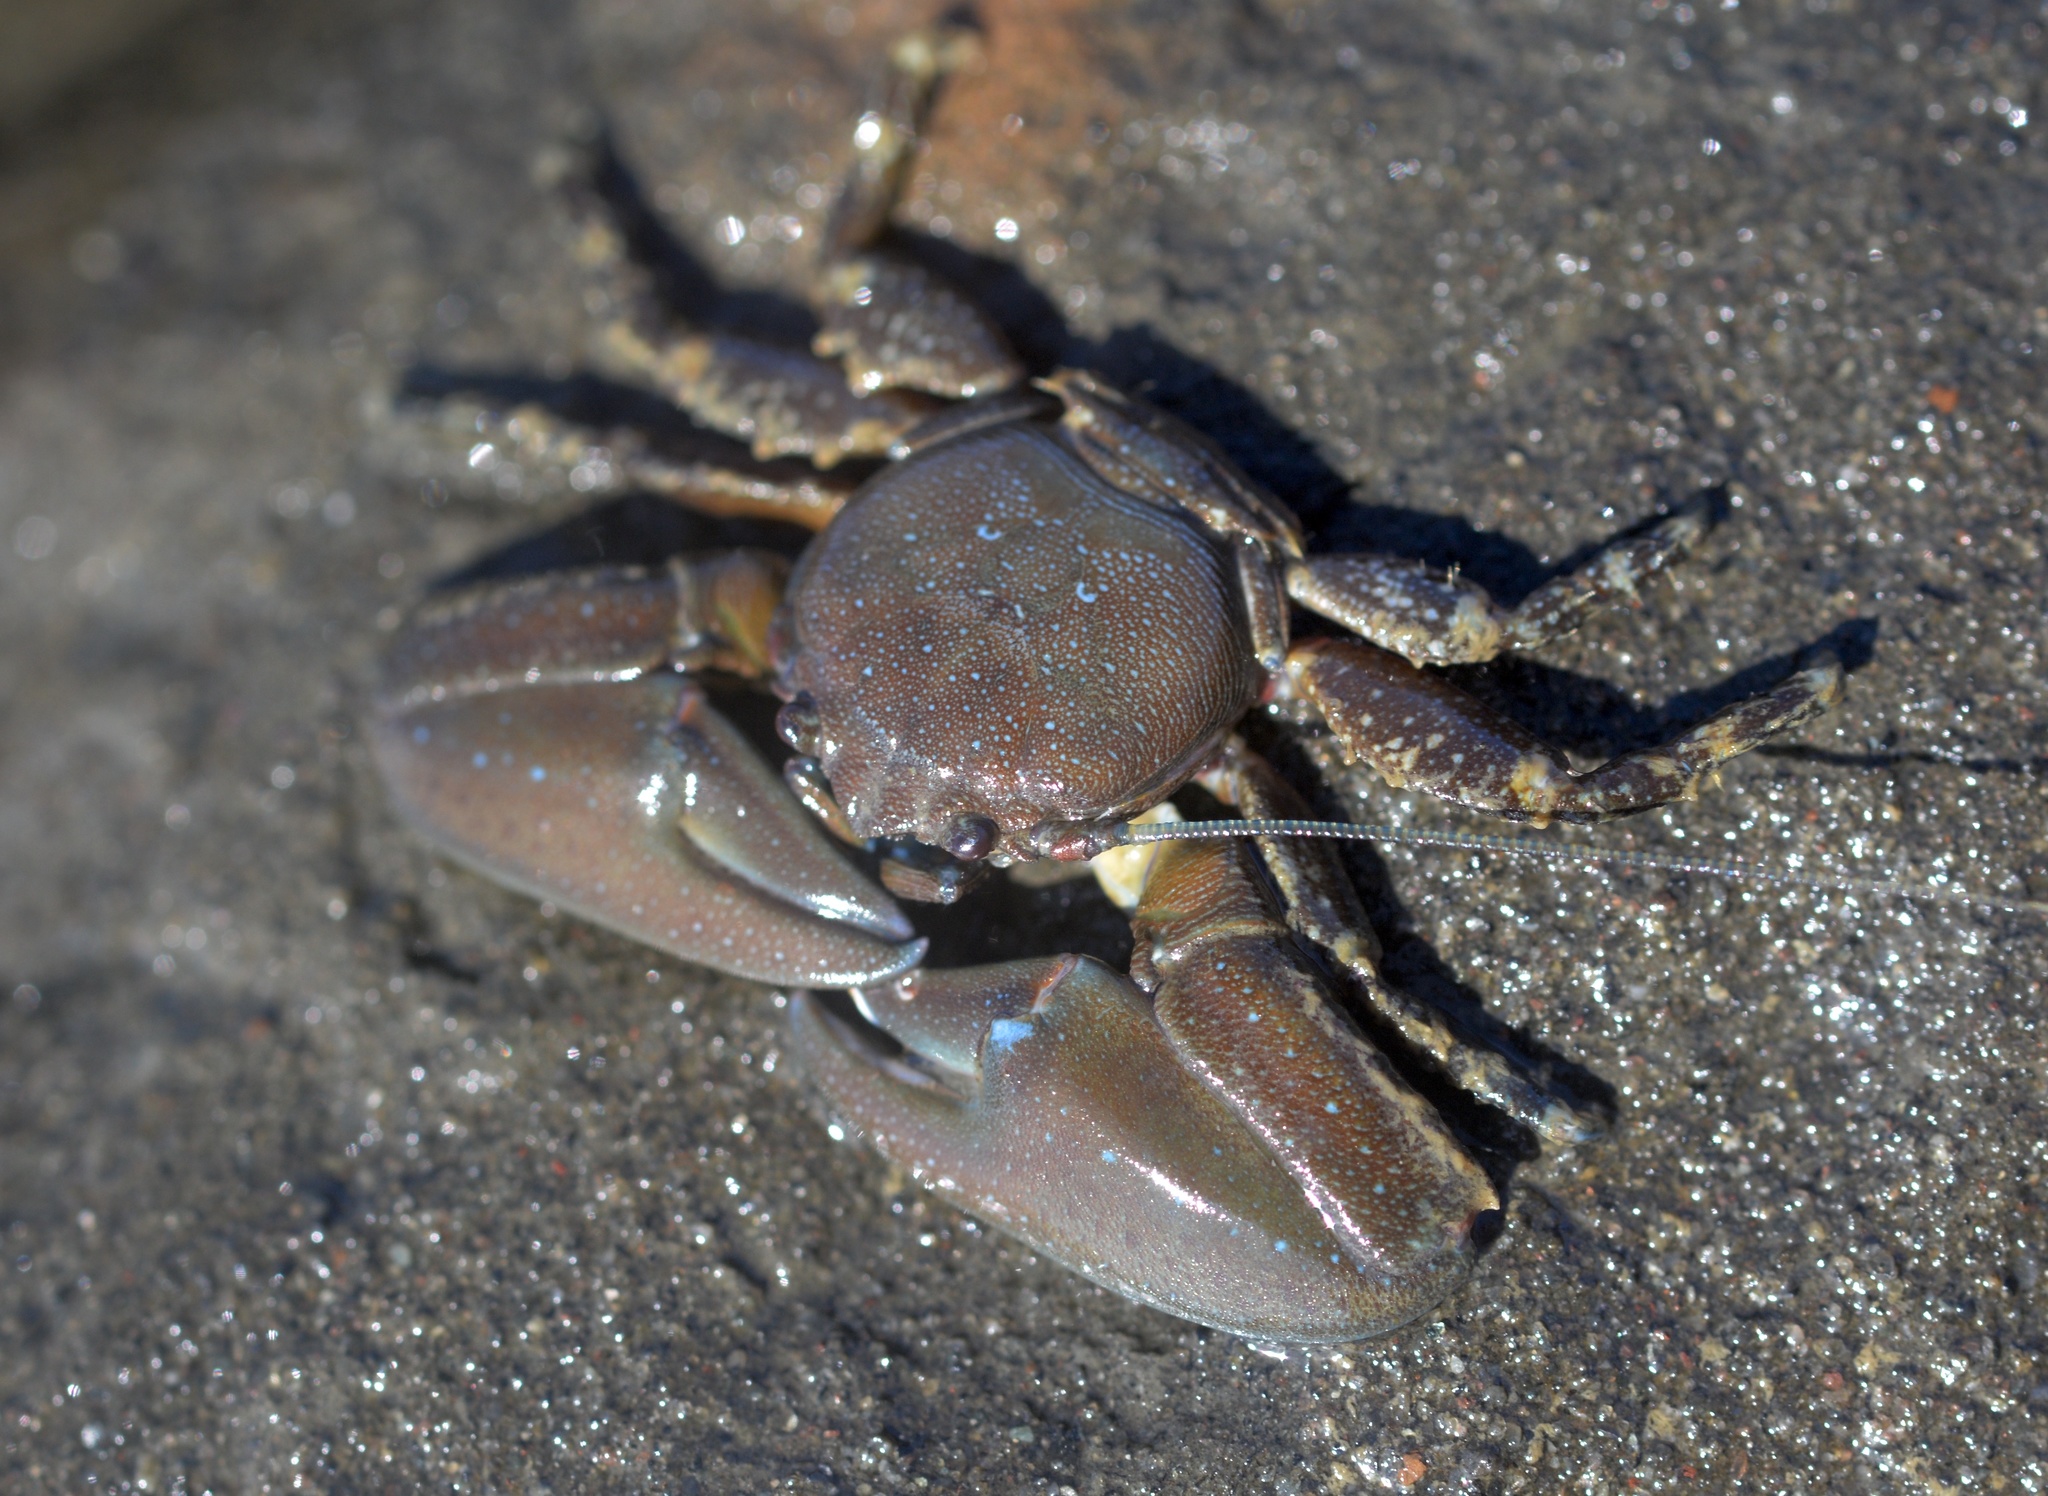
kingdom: Animalia
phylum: Arthropoda
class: Malacostraca
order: Decapoda
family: Porcellanidae
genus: Petrolisthes
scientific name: Petrolisthes eriomerus
